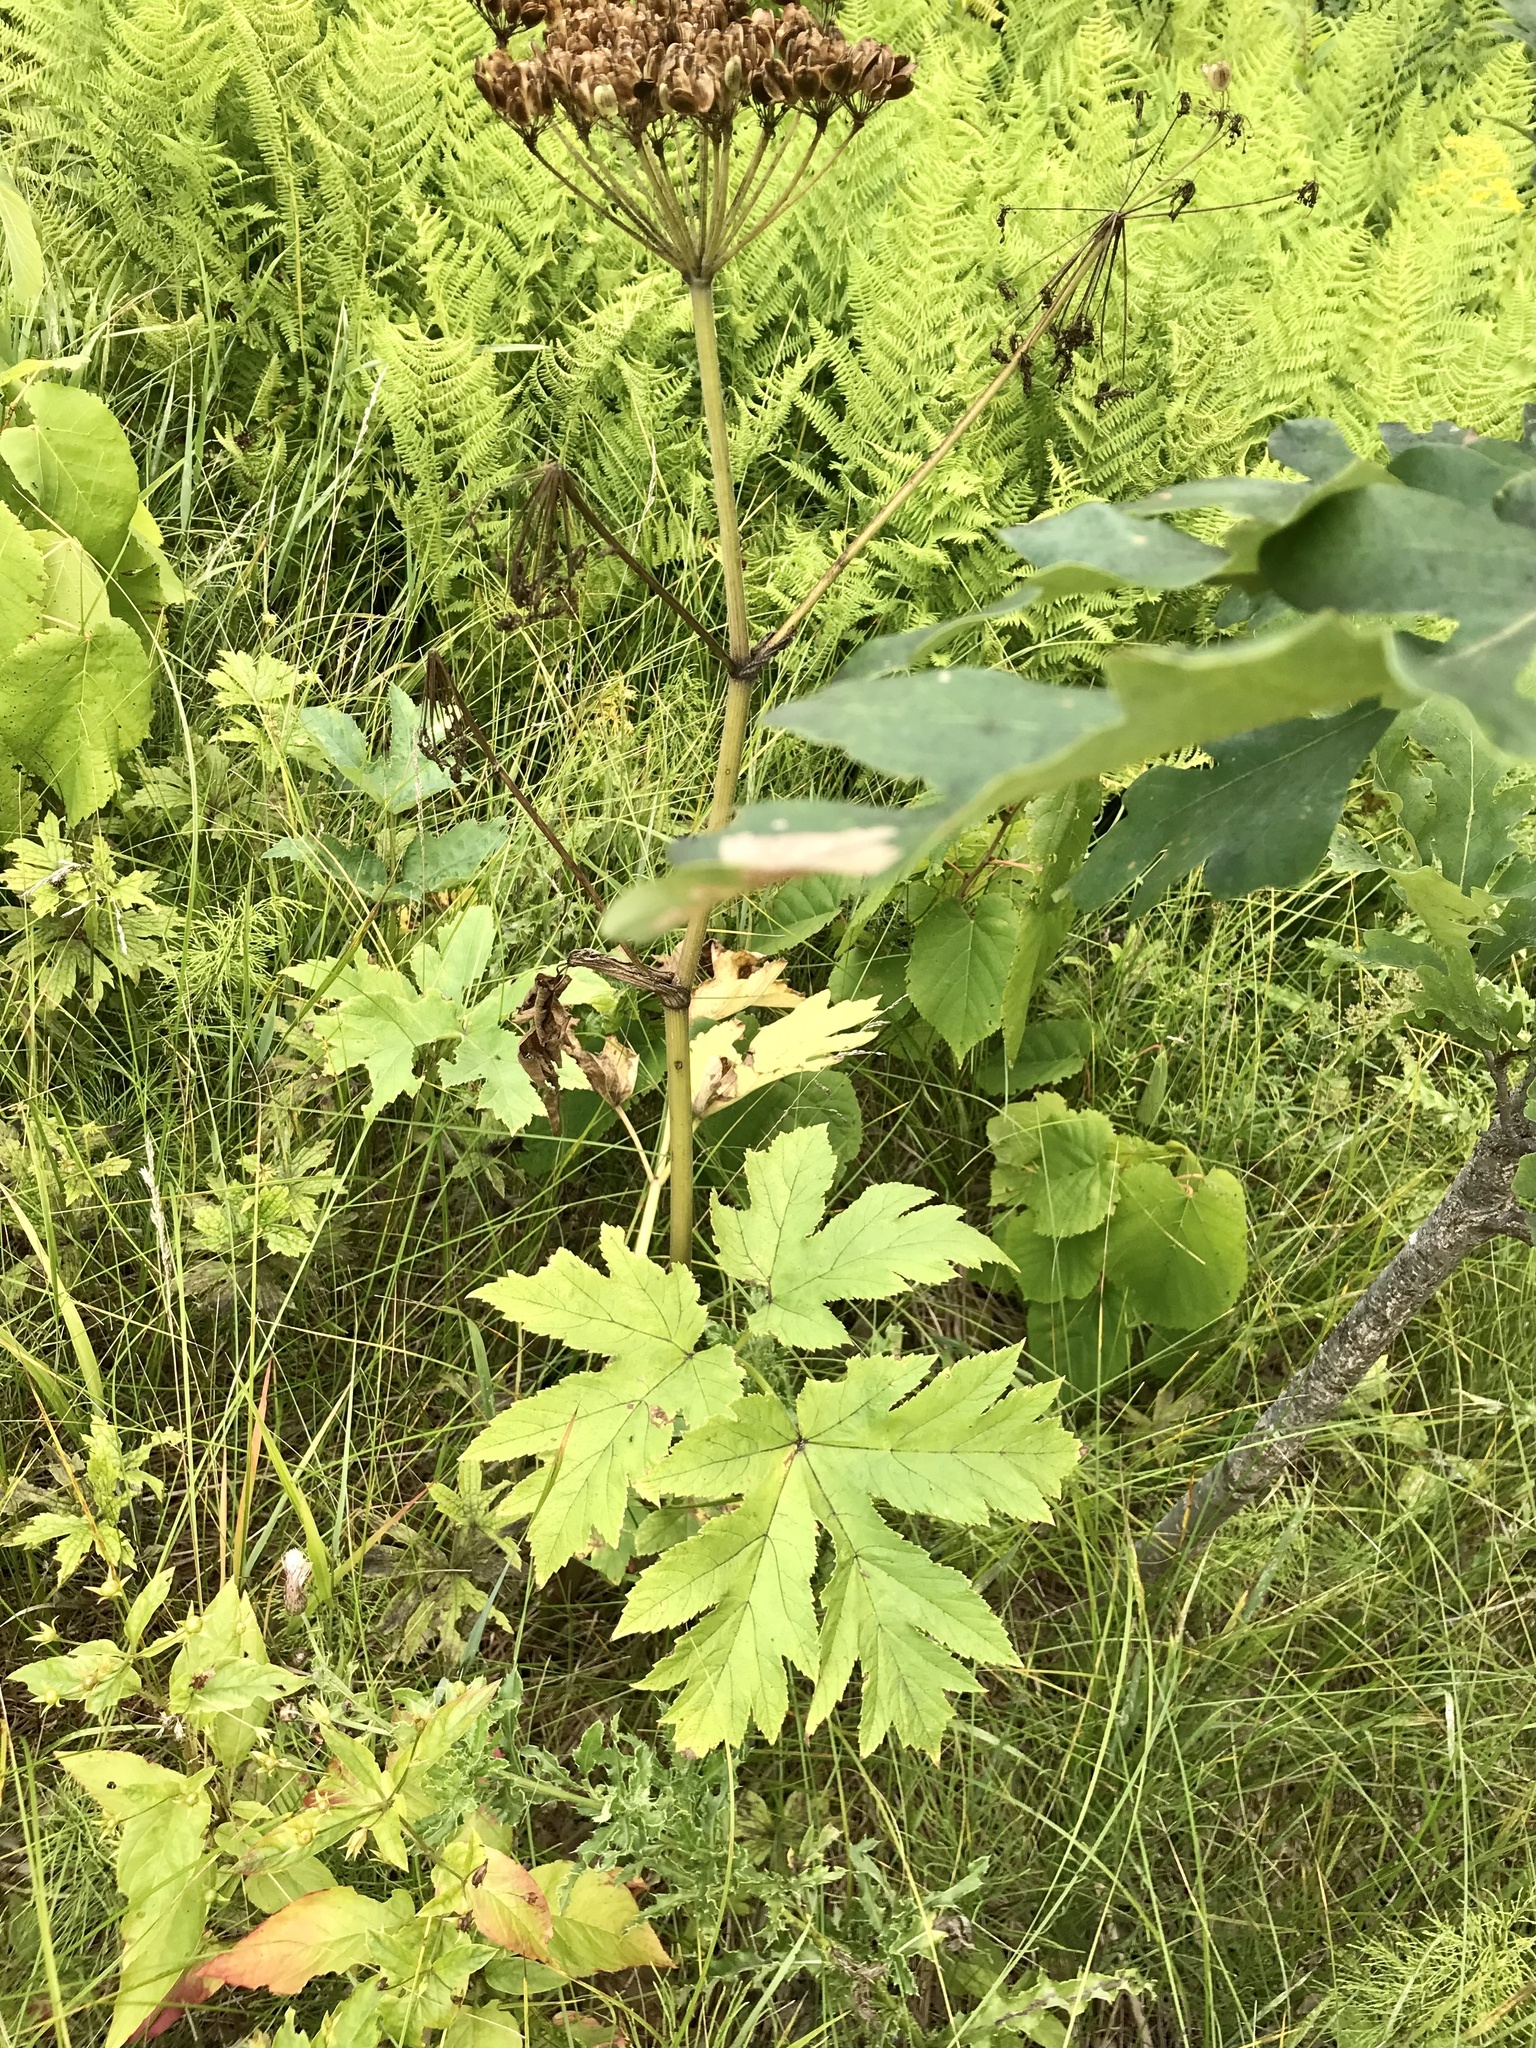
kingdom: Plantae
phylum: Tracheophyta
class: Magnoliopsida
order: Apiales
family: Apiaceae
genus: Heracleum
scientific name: Heracleum maximum
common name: American cow parsnip
